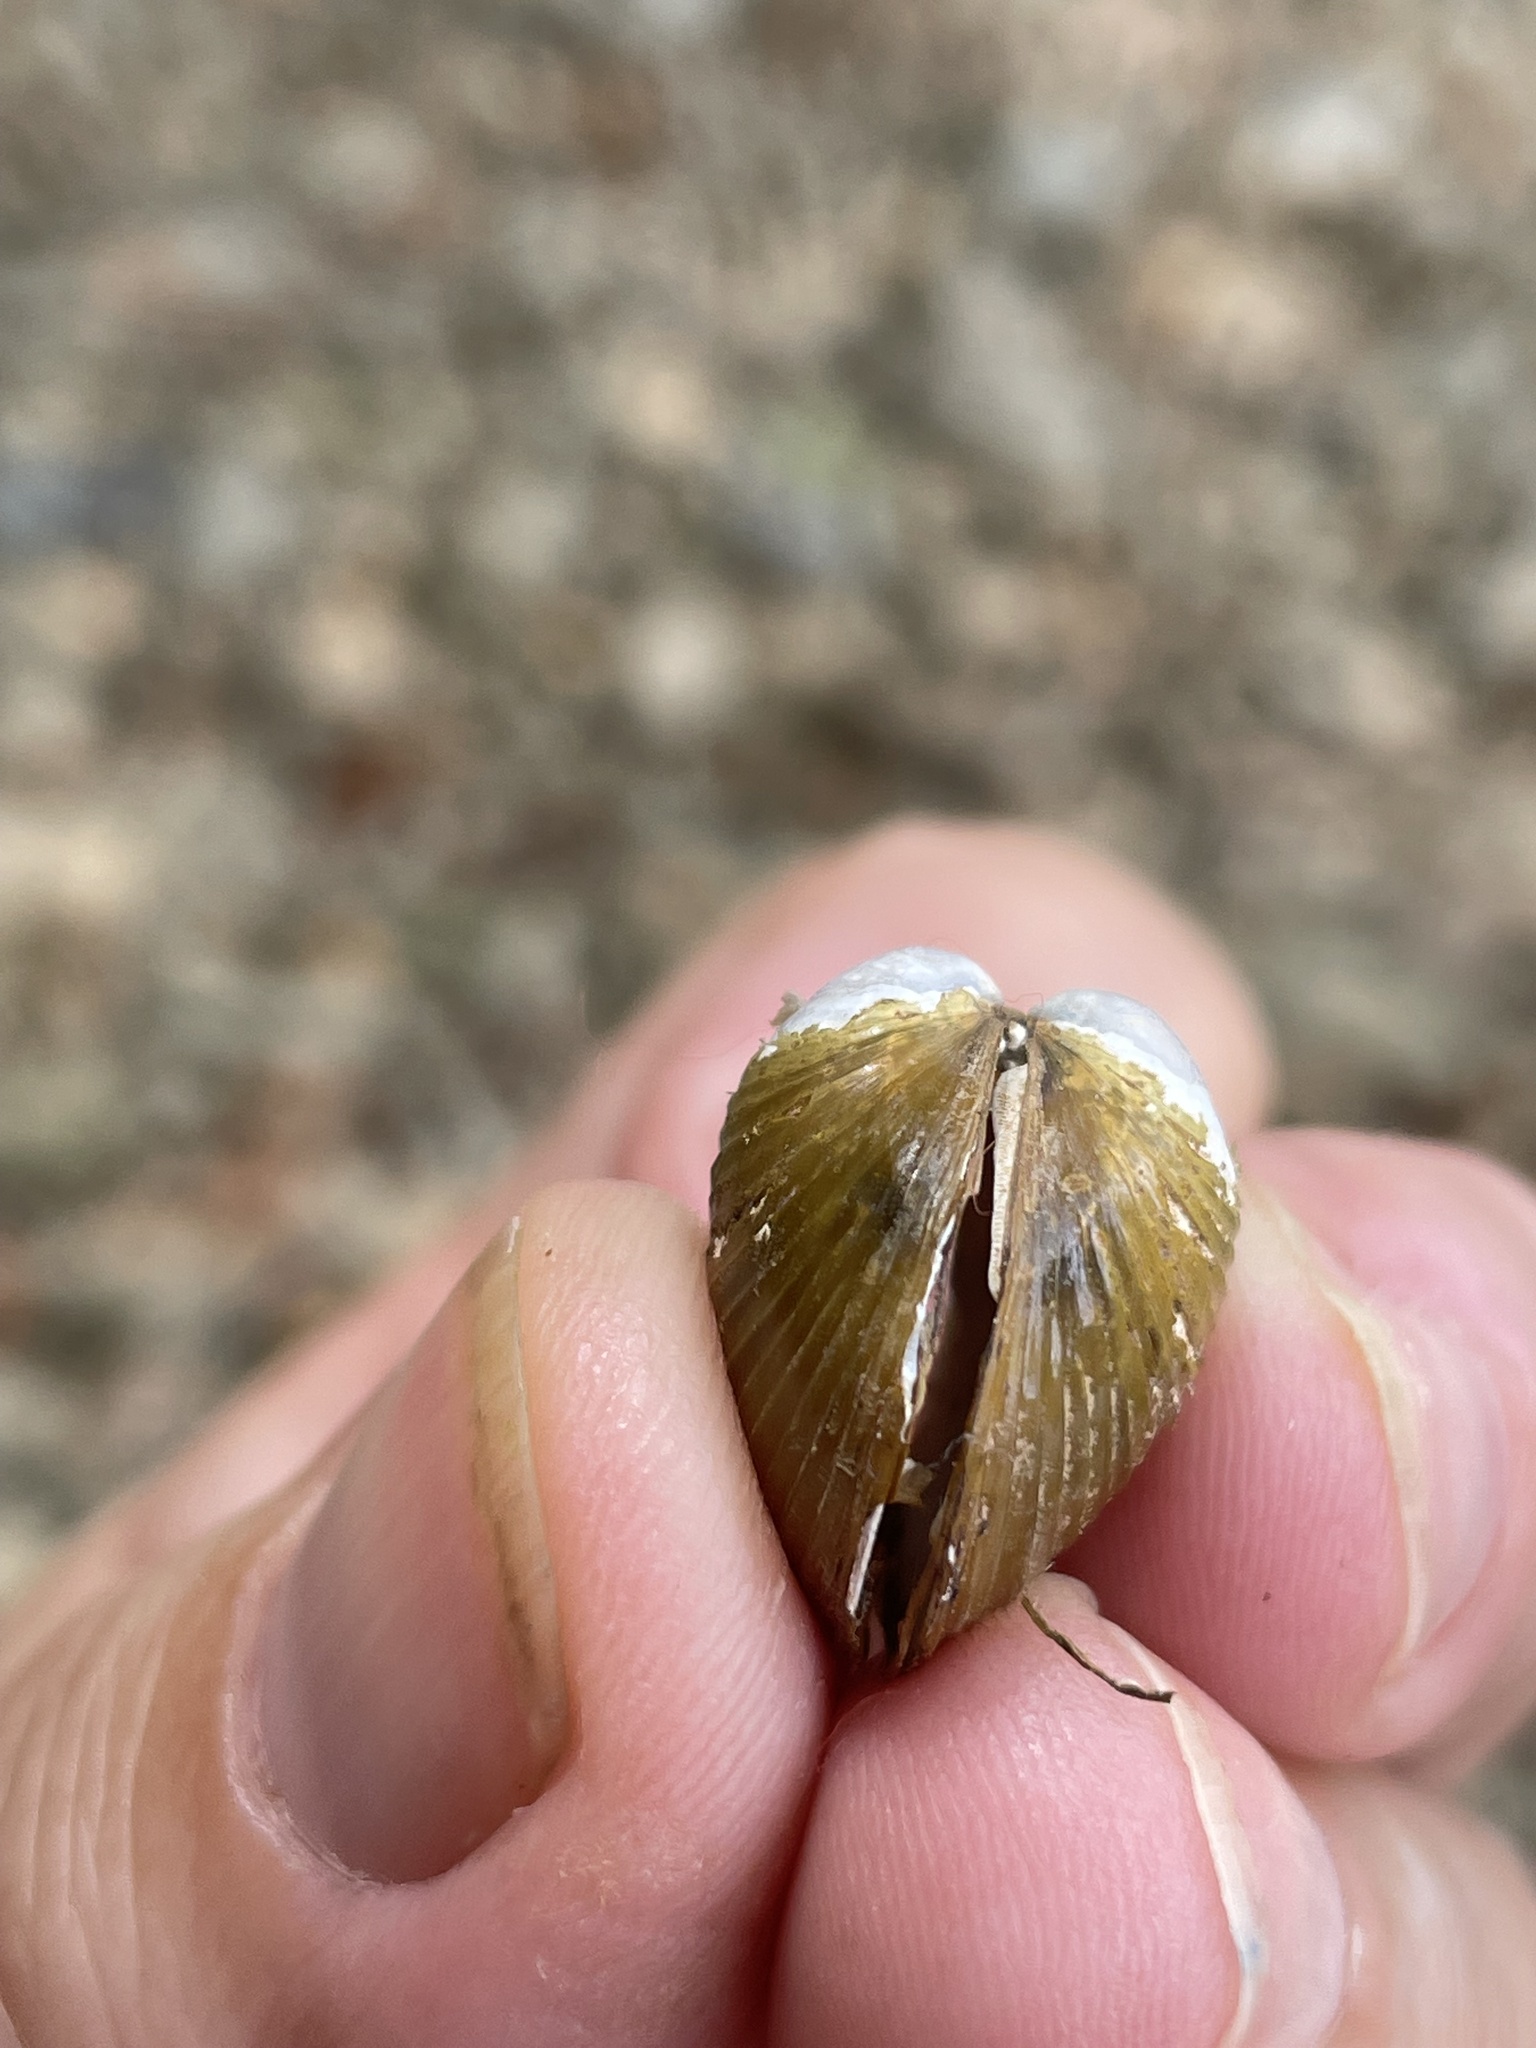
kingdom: Animalia
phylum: Mollusca
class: Bivalvia
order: Venerida
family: Cyrenidae
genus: Corbicula
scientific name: Corbicula fluminea
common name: Asian clam
